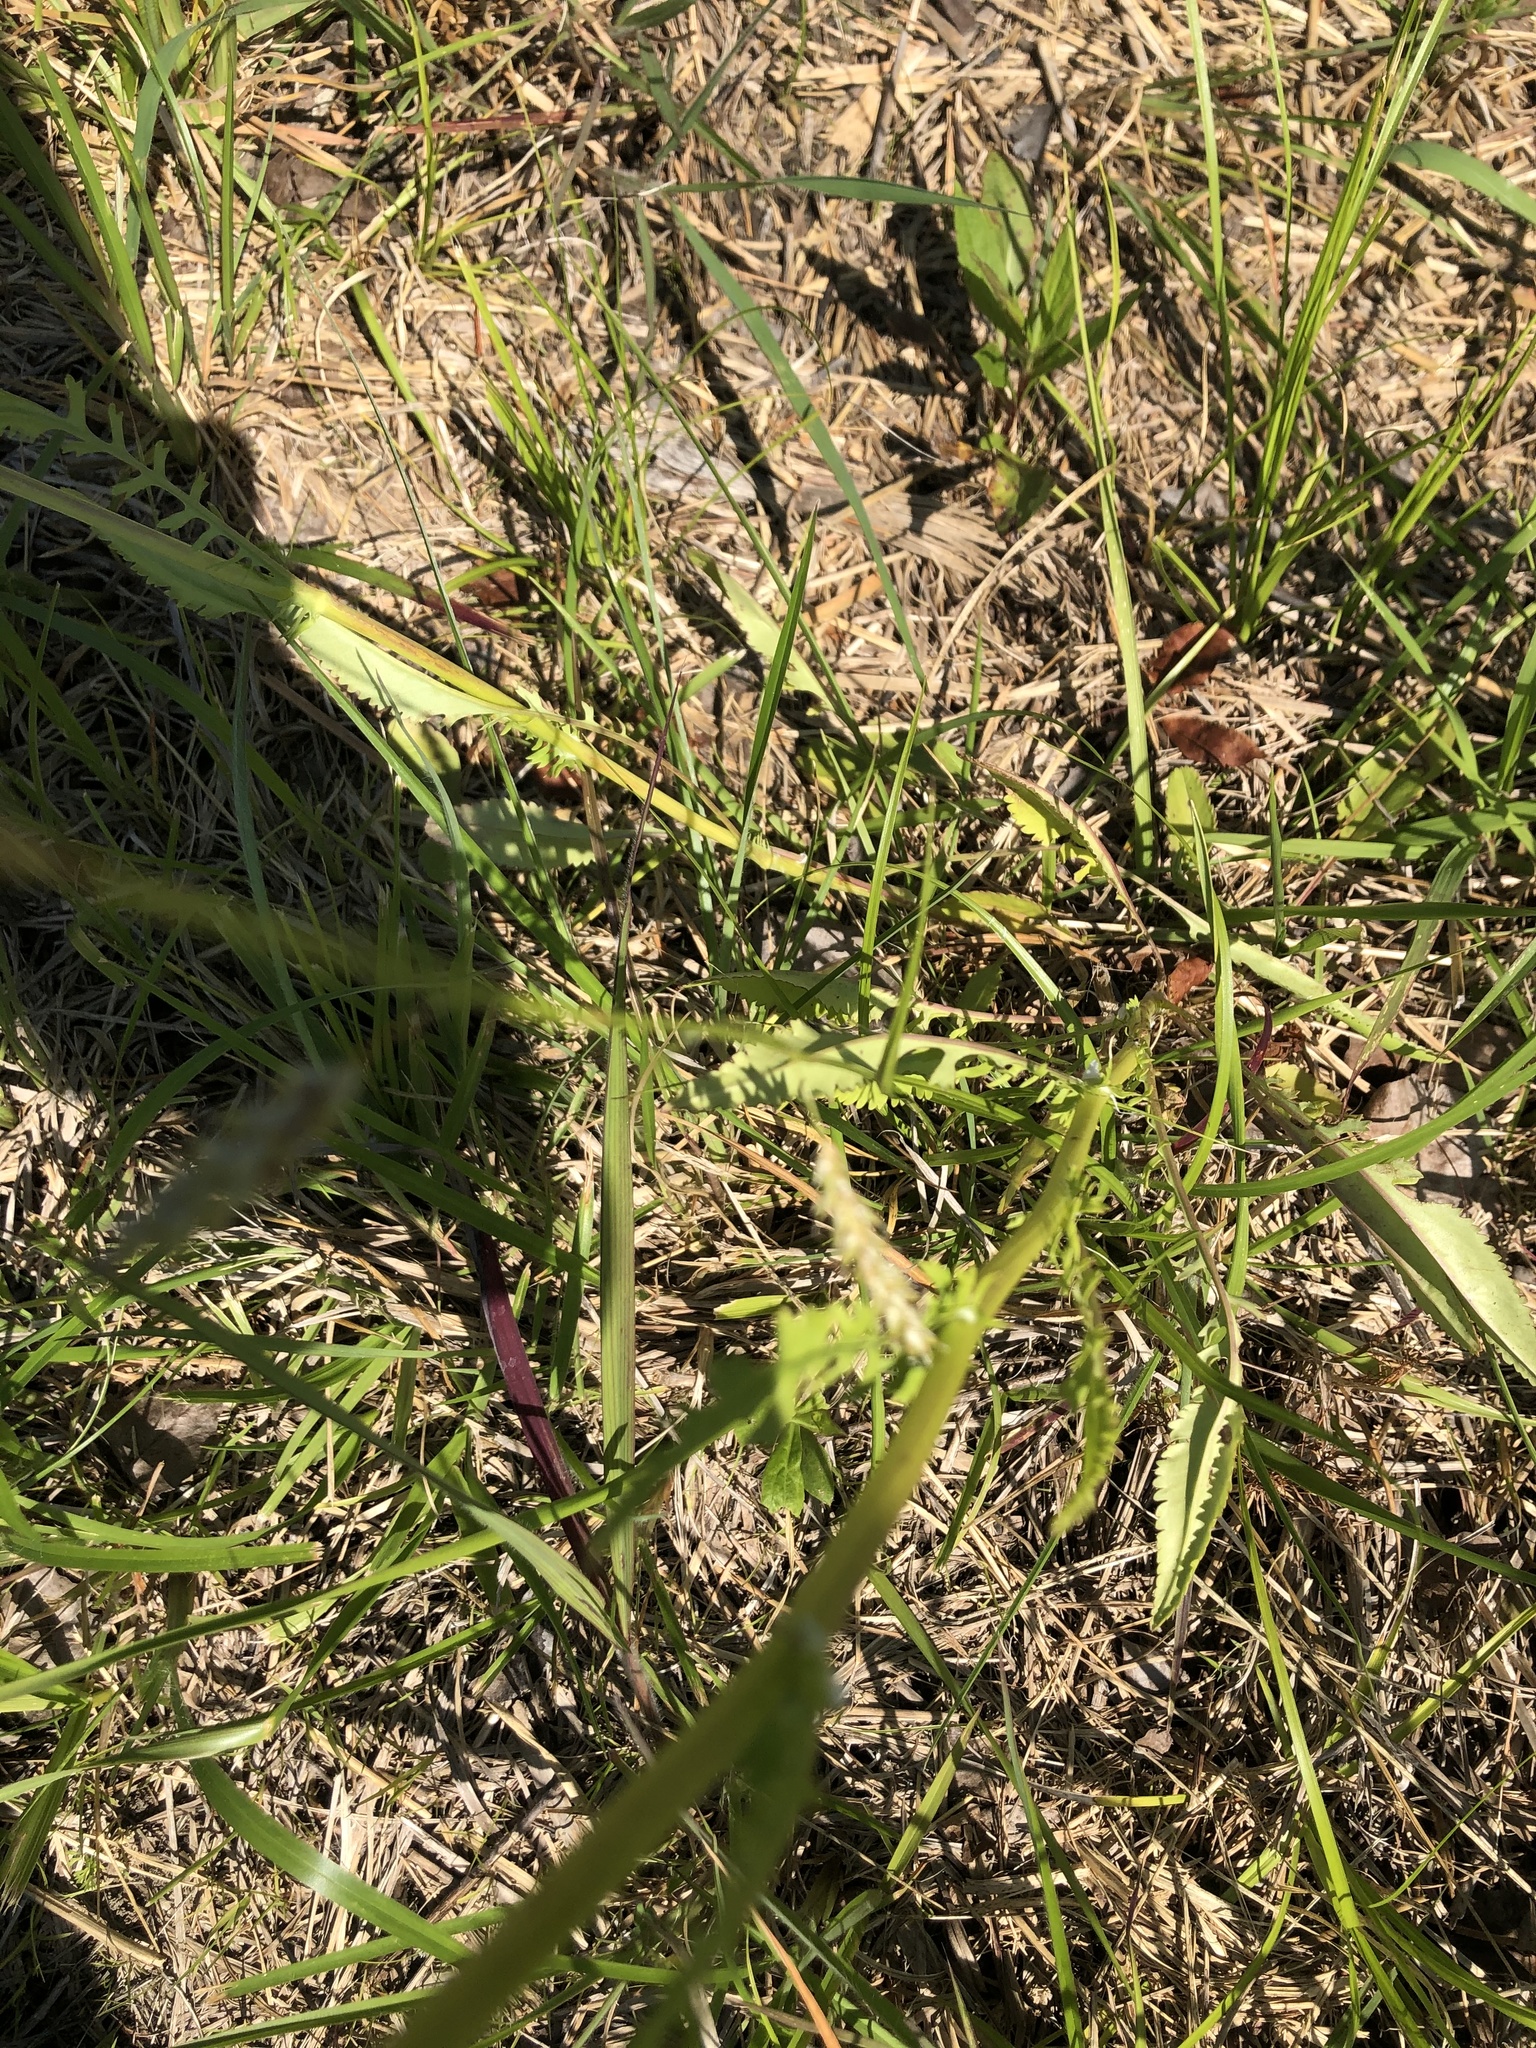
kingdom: Plantae
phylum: Tracheophyta
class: Magnoliopsida
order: Asterales
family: Asteraceae
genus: Packera
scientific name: Packera anonyma
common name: Small ragwort
